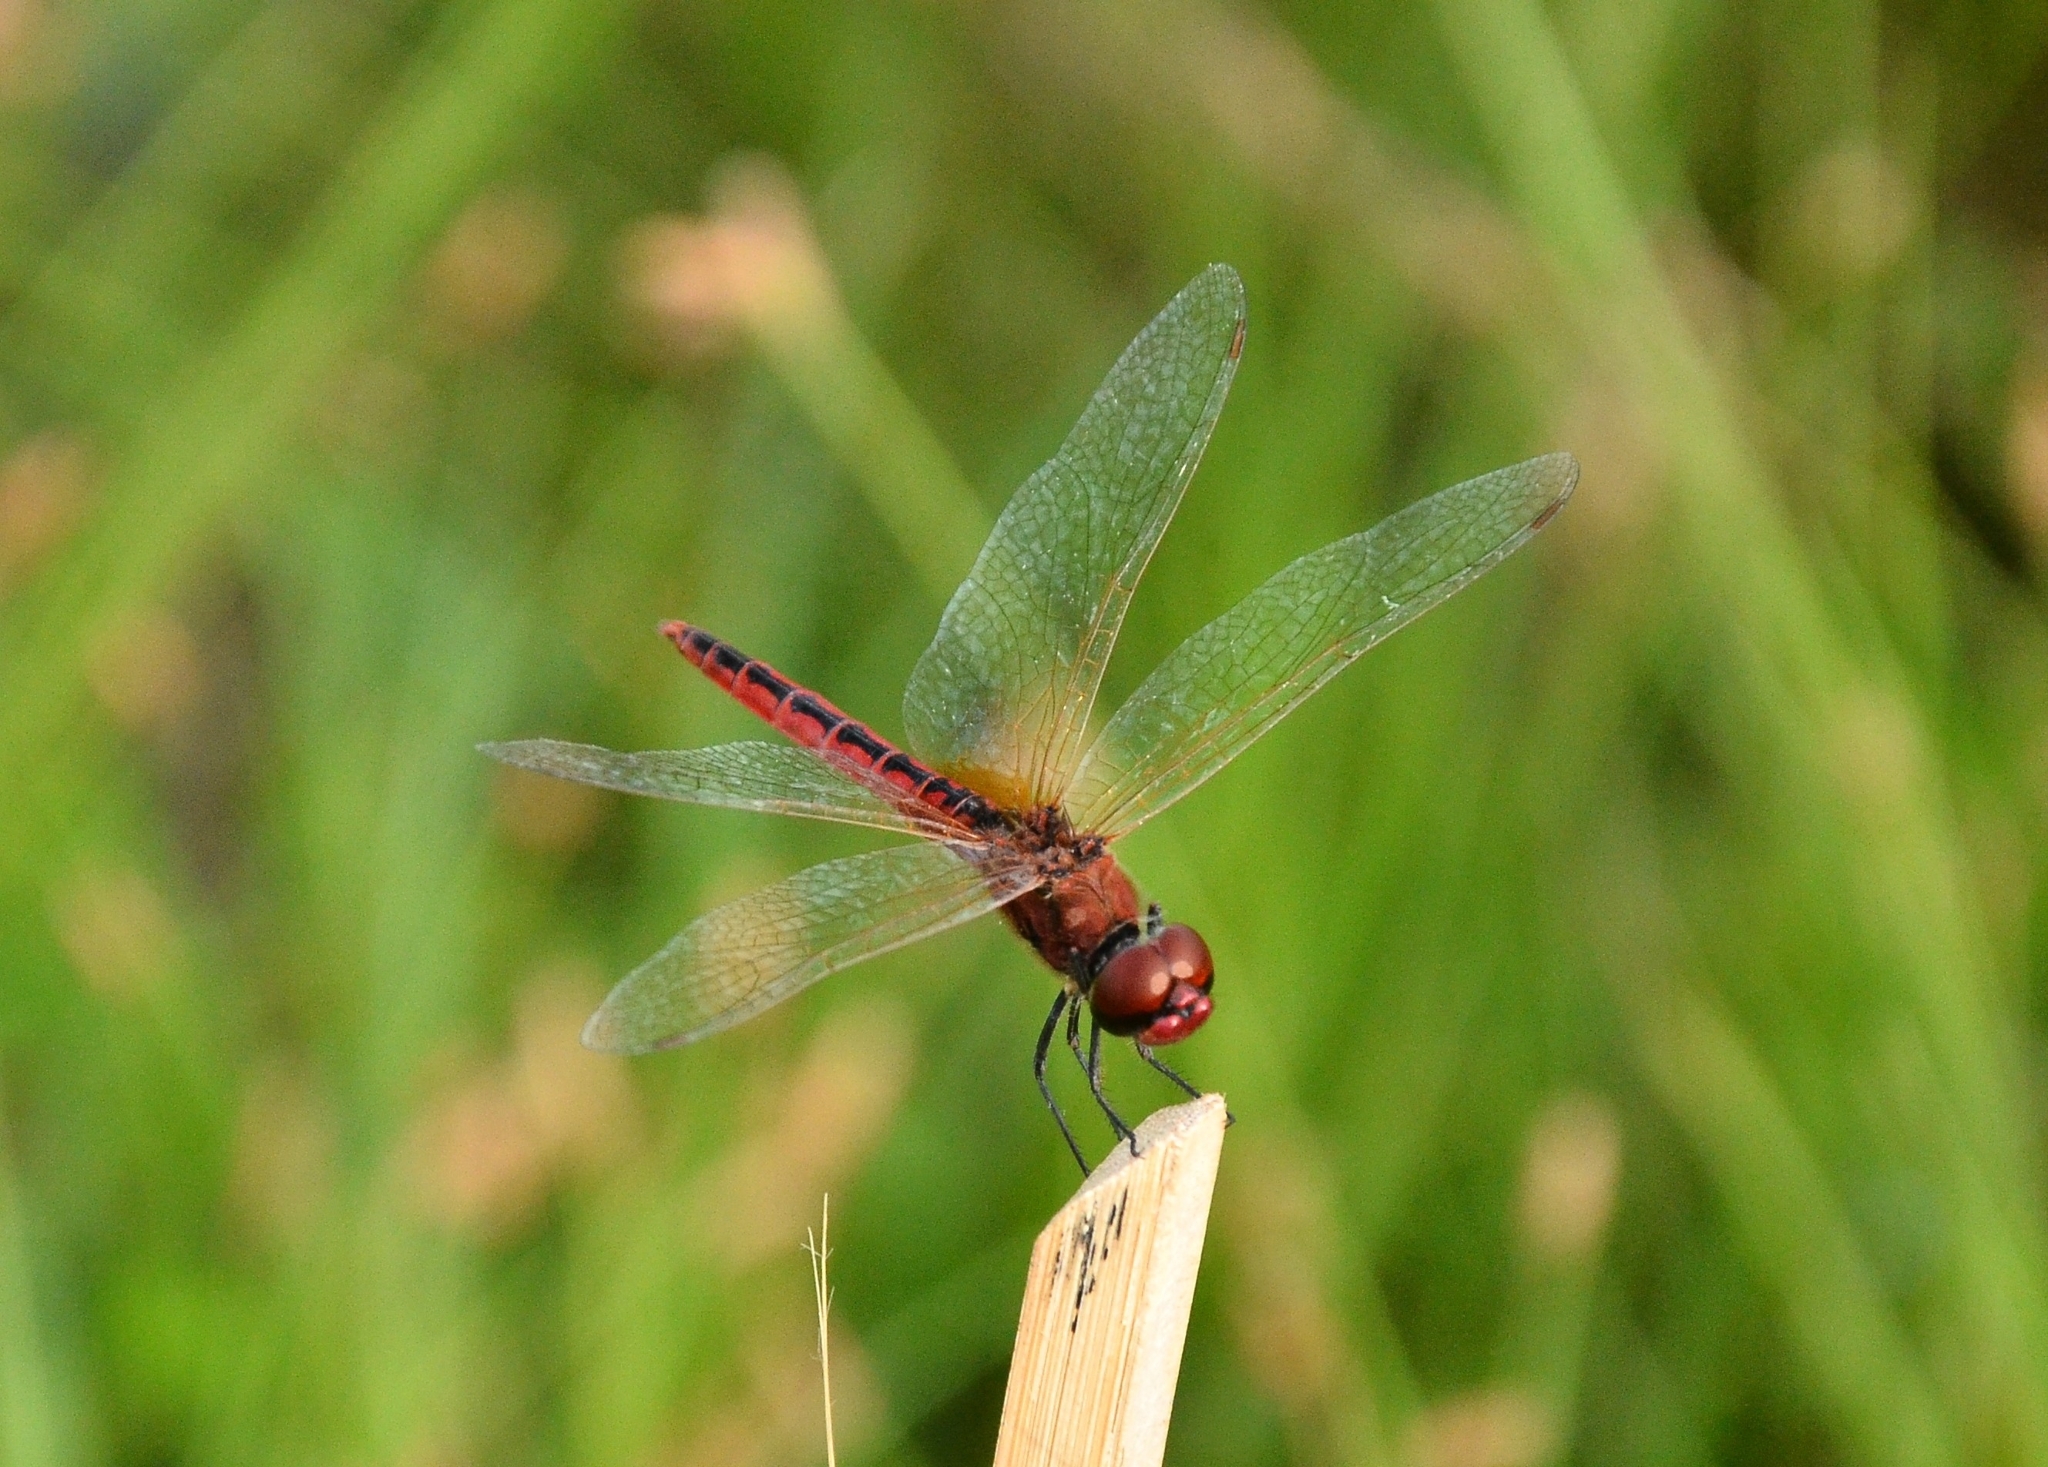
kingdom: Animalia
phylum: Arthropoda
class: Insecta
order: Odonata
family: Libellulidae
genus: Macrodiplax
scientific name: Macrodiplax cora
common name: Coastal glider
